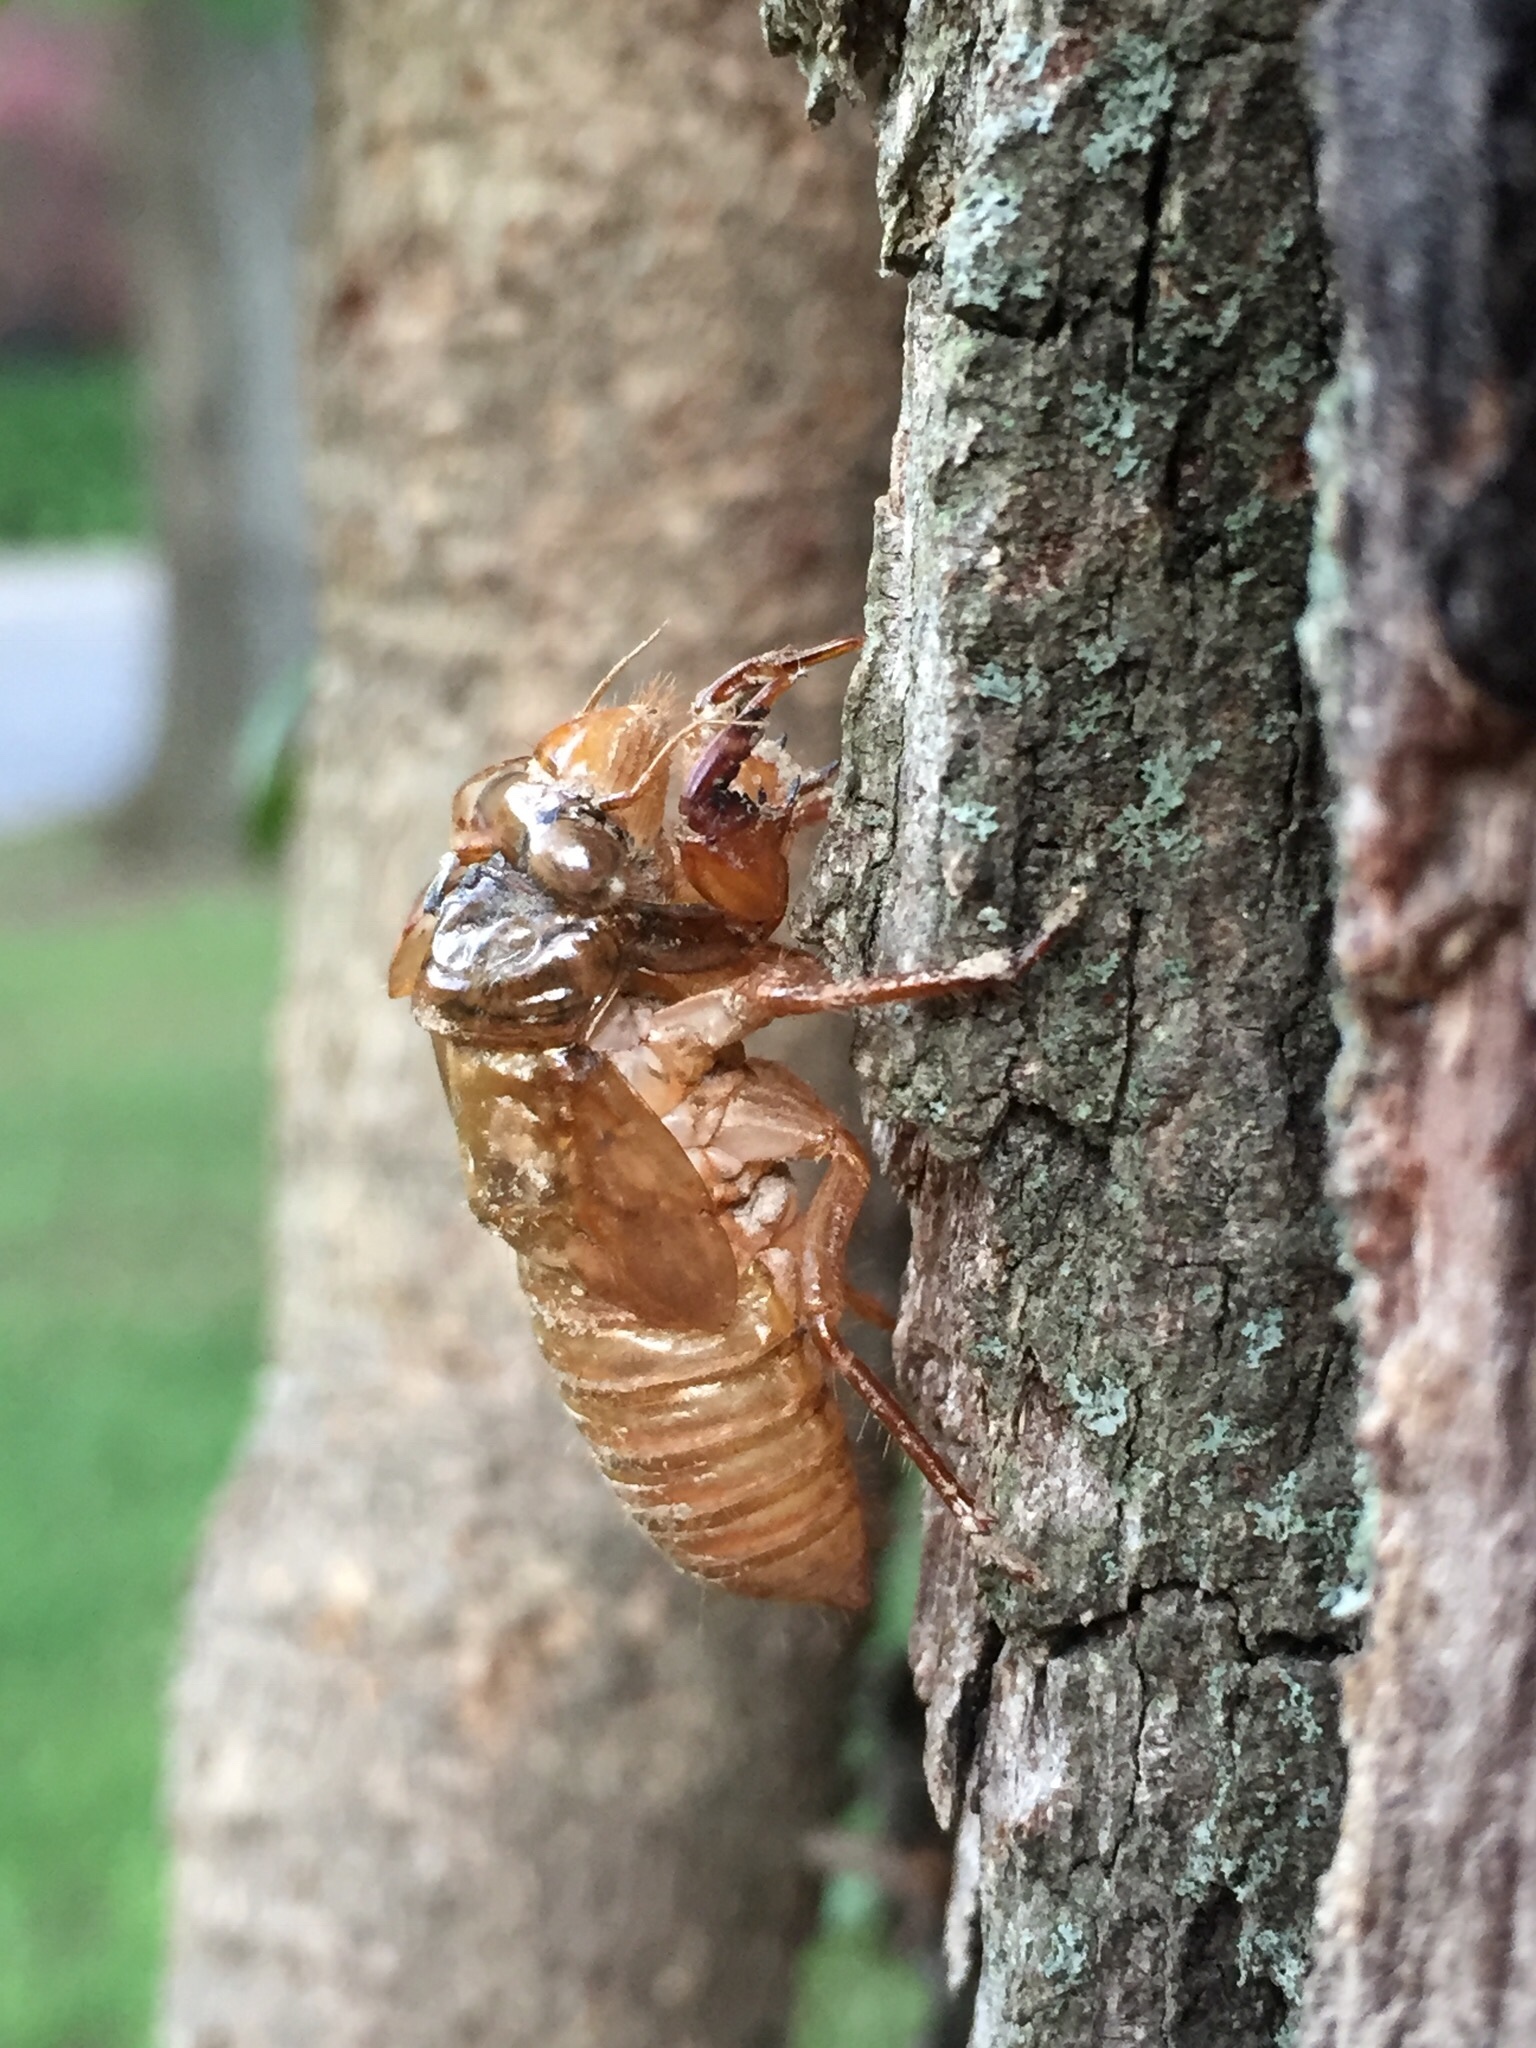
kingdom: Animalia
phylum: Arthropoda
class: Insecta
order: Hemiptera
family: Cicadidae
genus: Magicicada
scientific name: Magicicada
